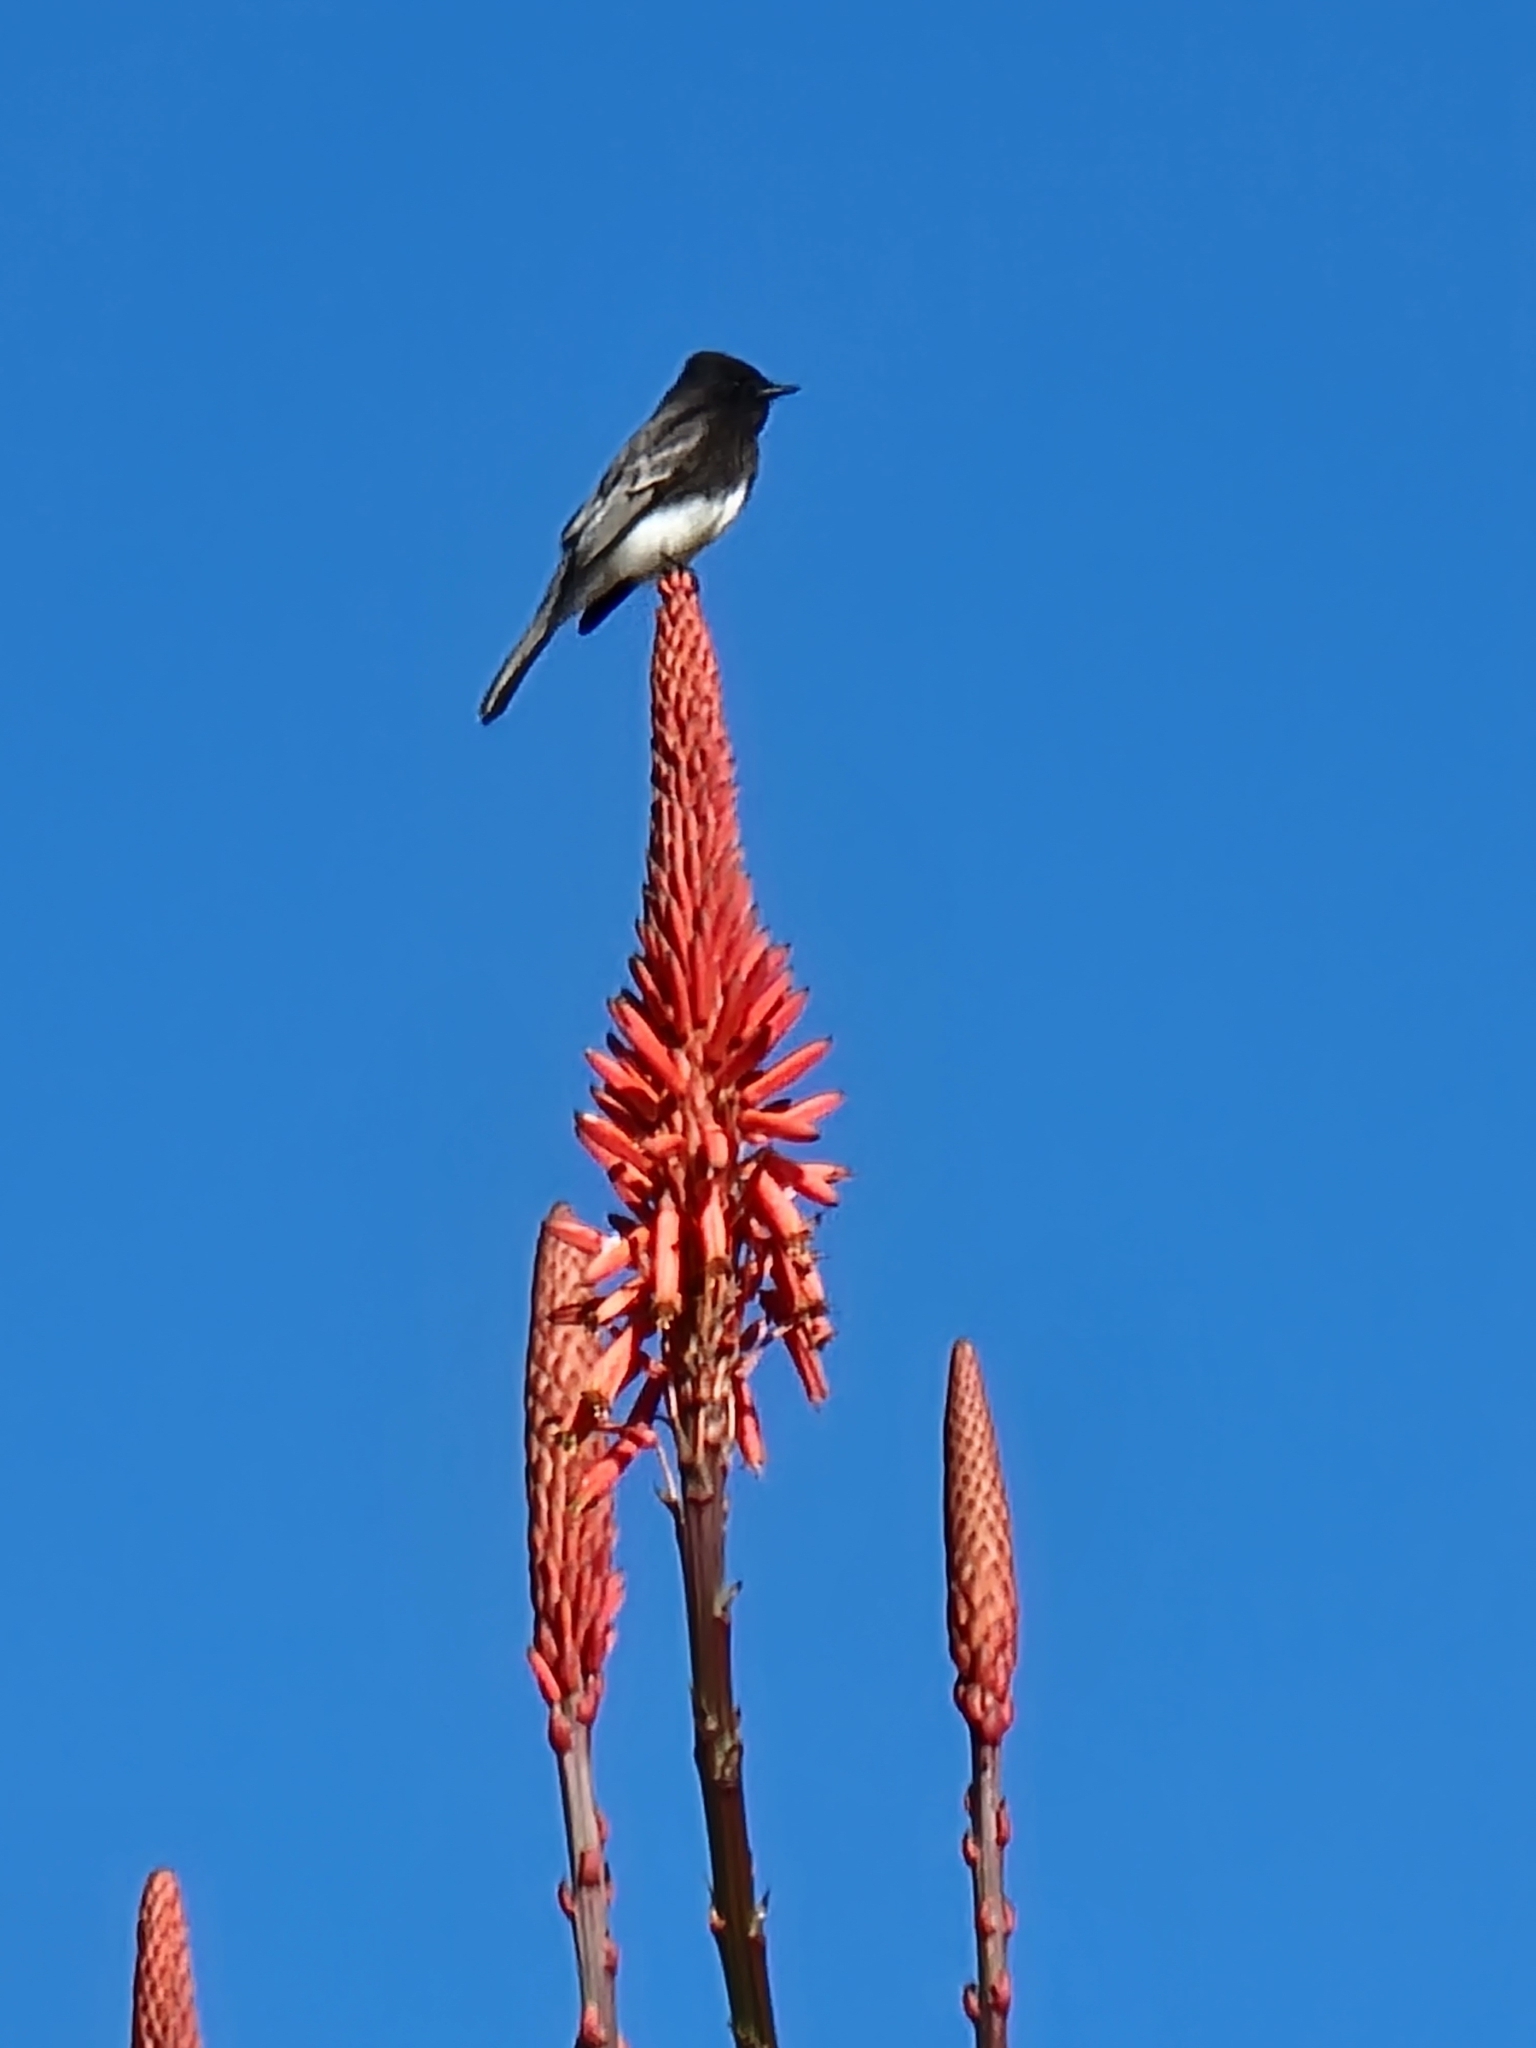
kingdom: Animalia
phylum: Chordata
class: Aves
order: Passeriformes
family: Tyrannidae
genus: Sayornis
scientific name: Sayornis nigricans
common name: Black phoebe
